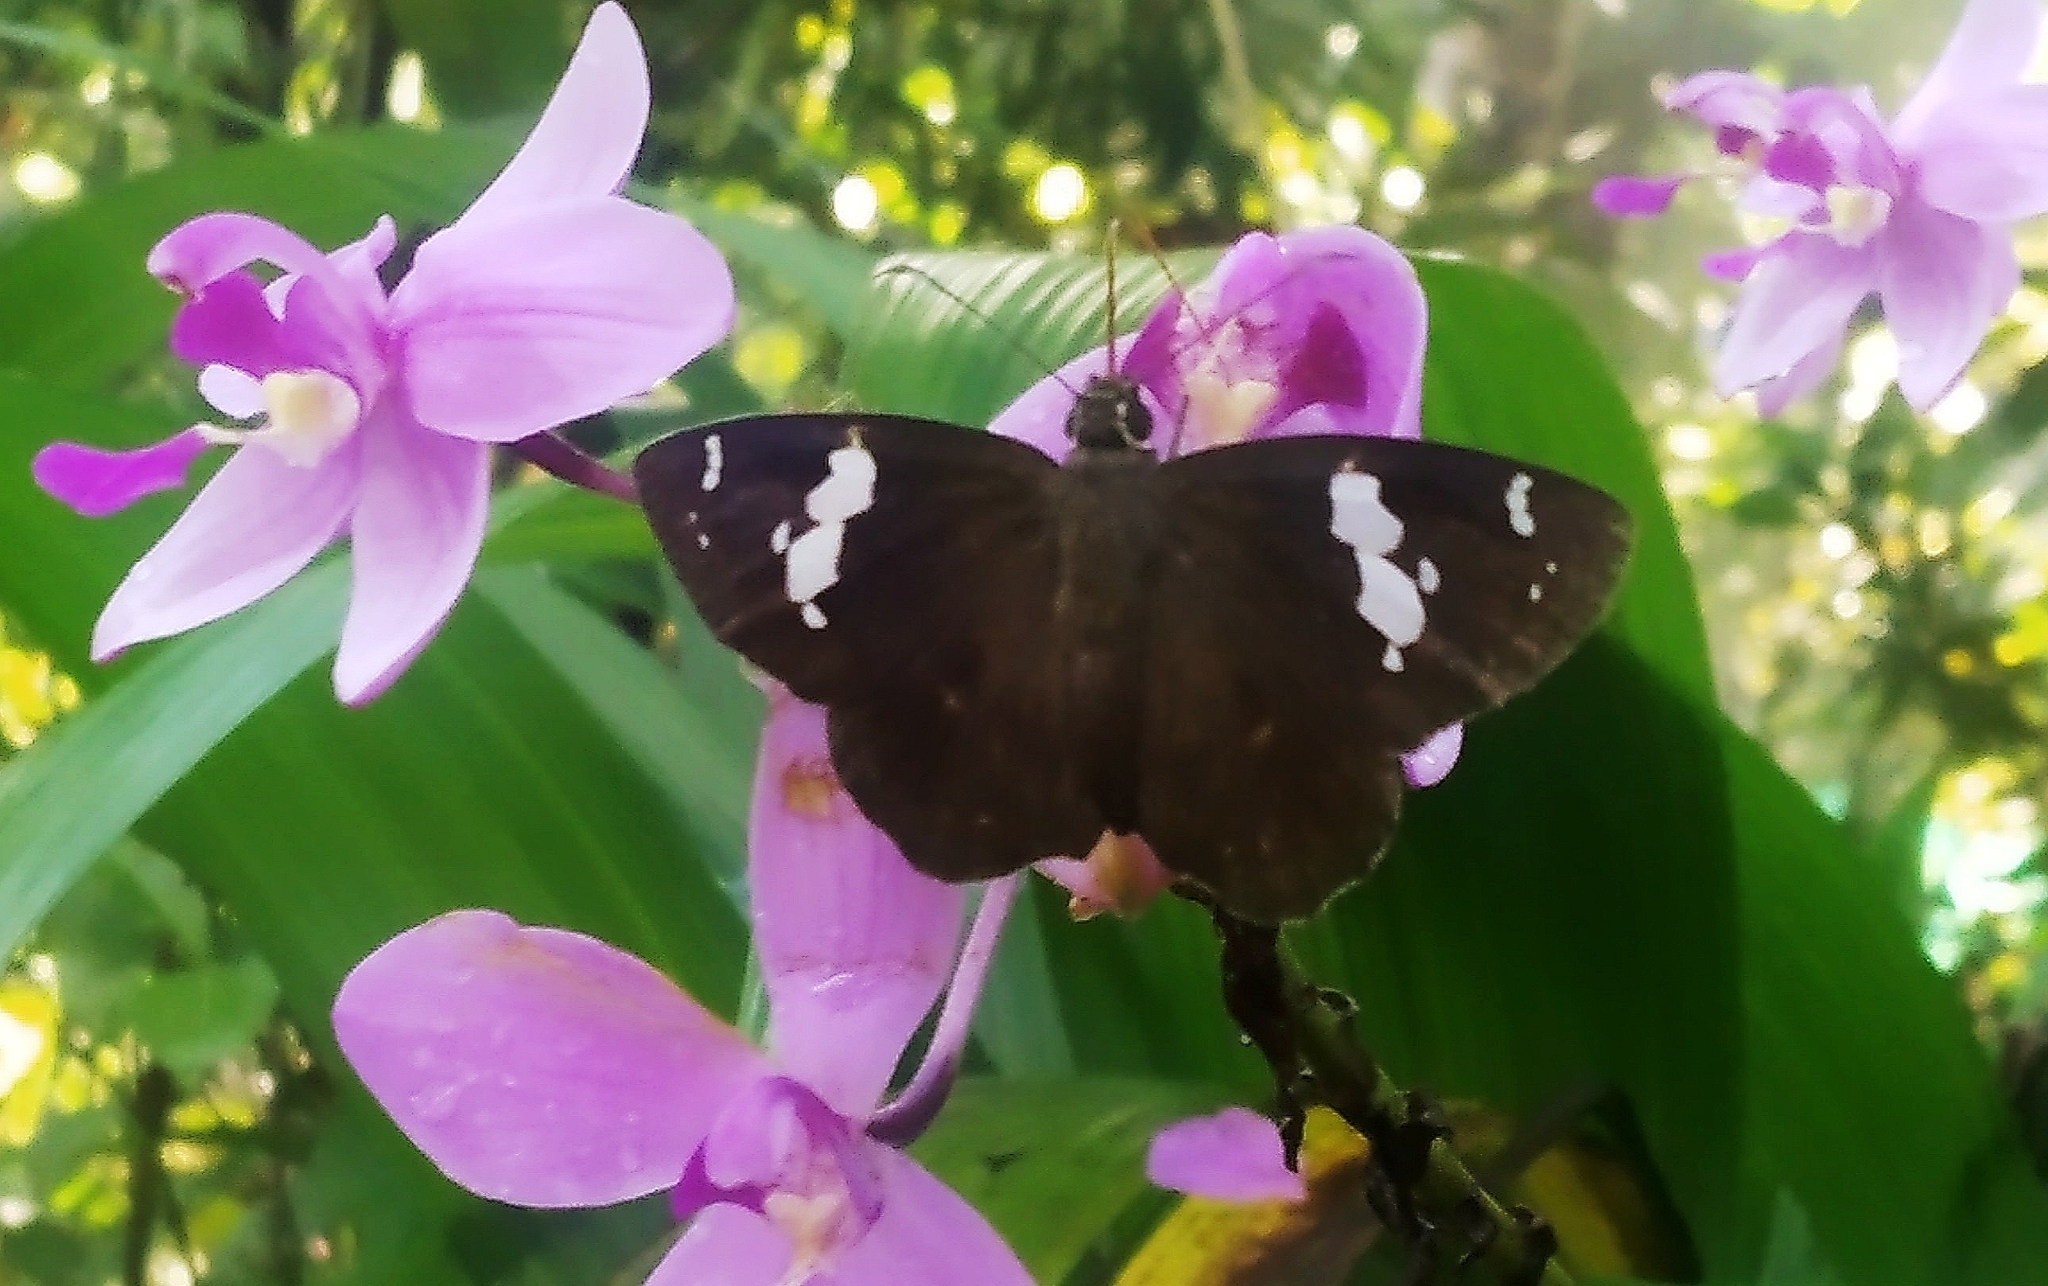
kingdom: Animalia
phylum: Arthropoda
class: Insecta
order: Lepidoptera
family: Hesperiidae
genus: Celaenorrhinus
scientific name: Celaenorrhinus leucocera
